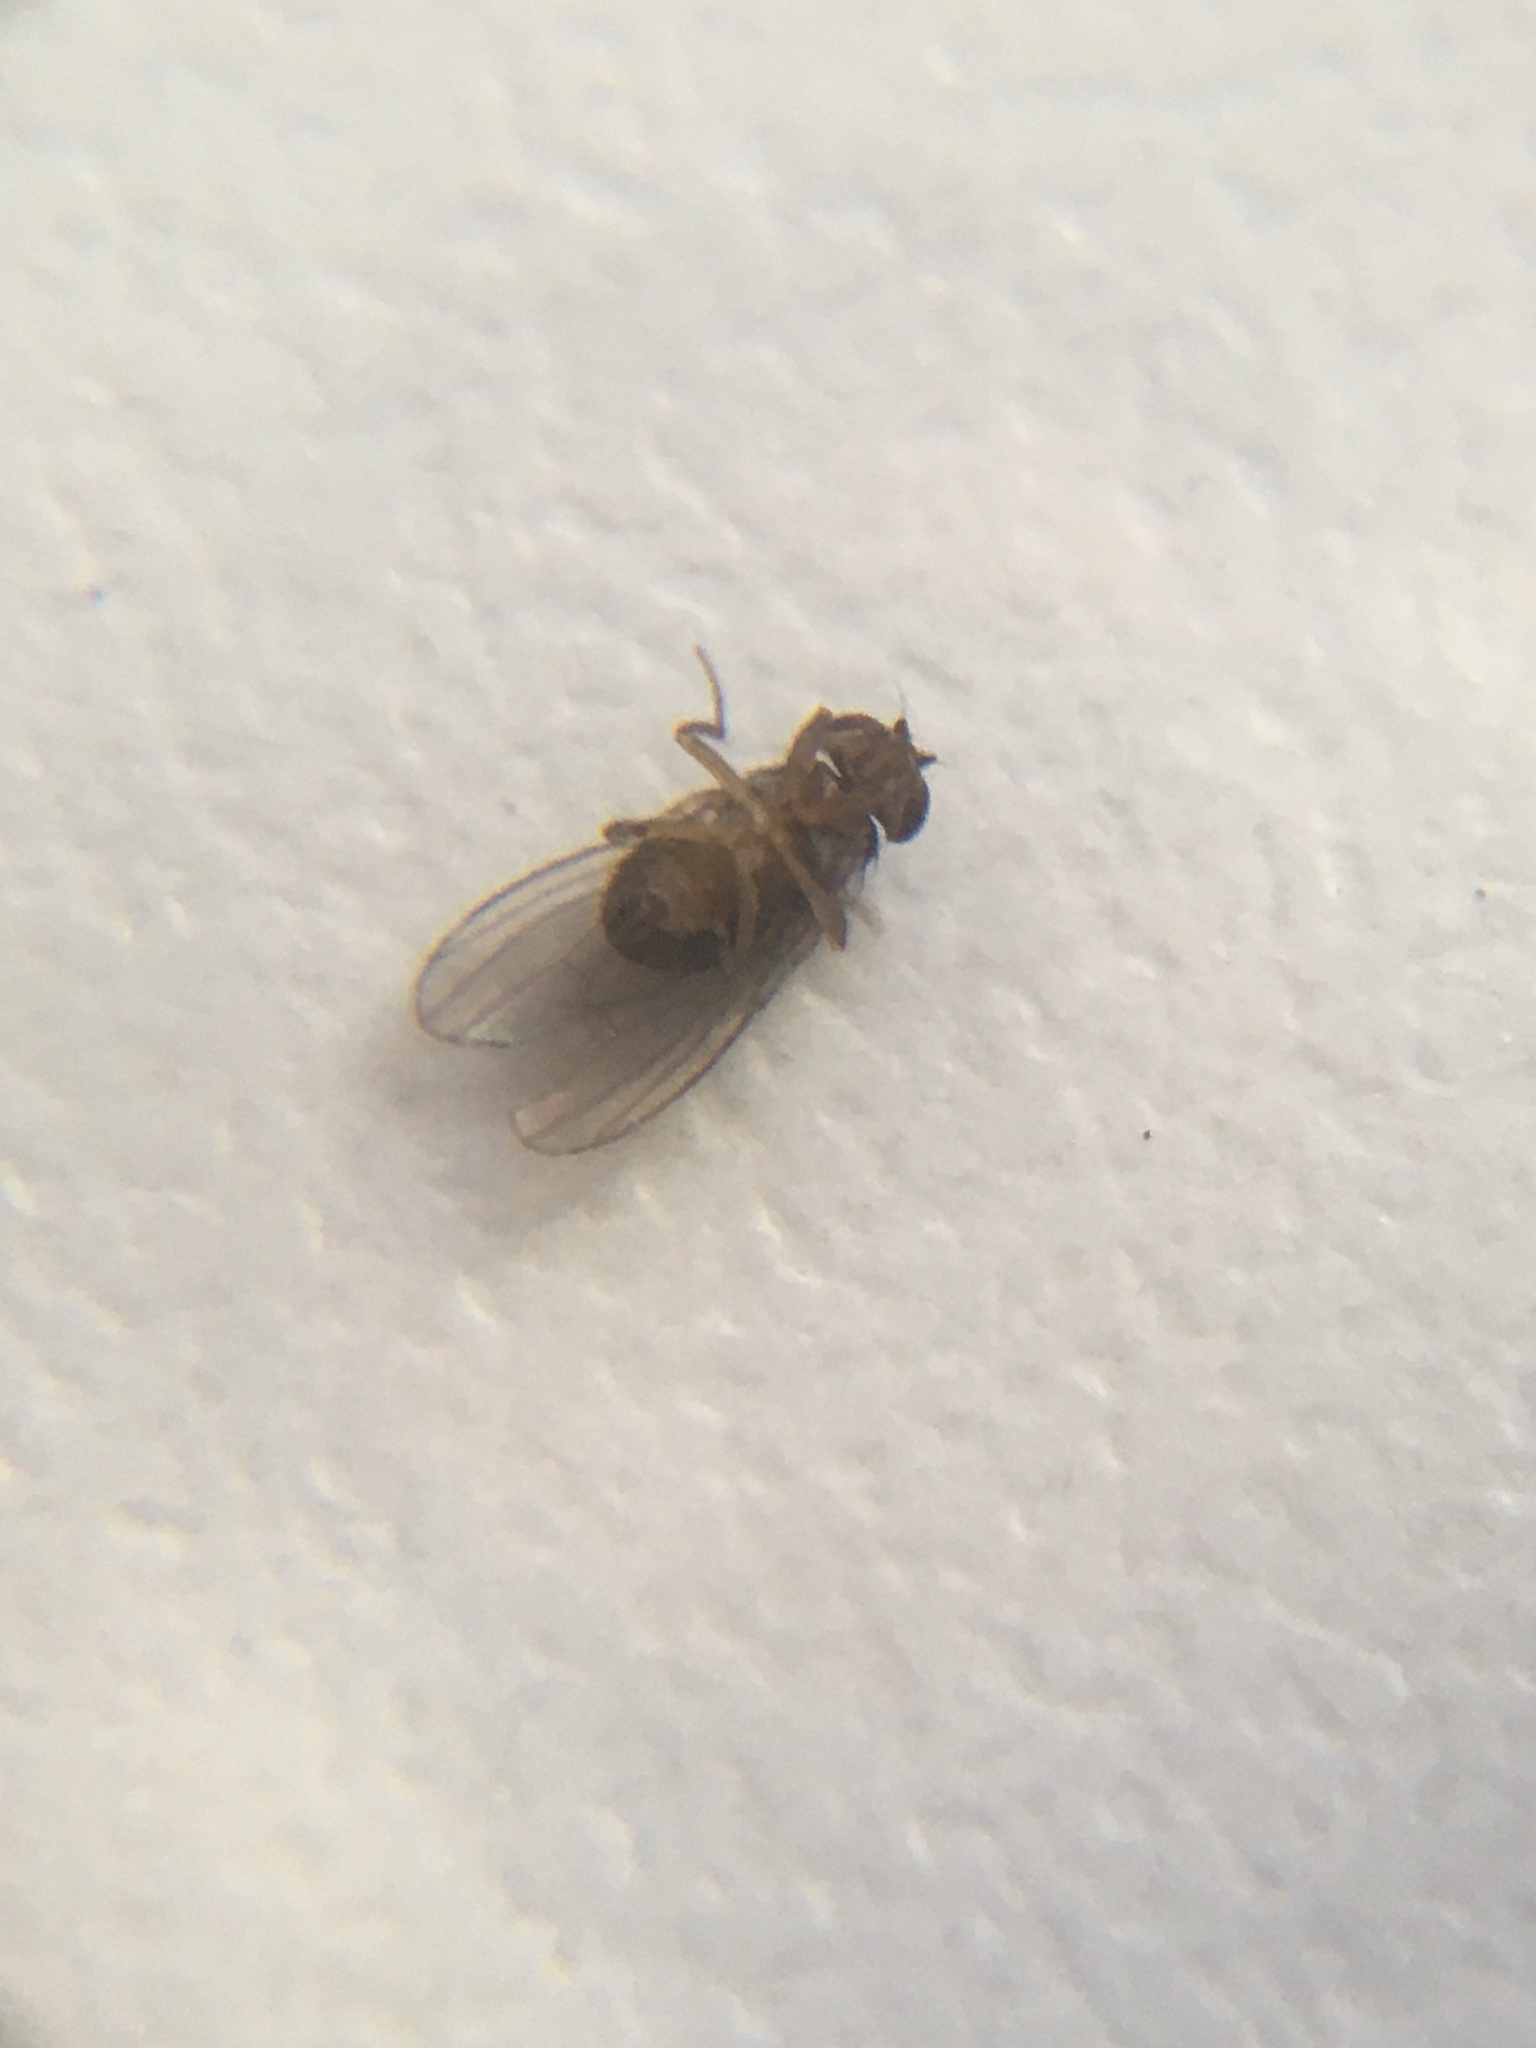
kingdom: Animalia
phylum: Arthropoda
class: Insecta
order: Diptera
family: Drosophilidae
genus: Drosophila
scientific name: Drosophila
